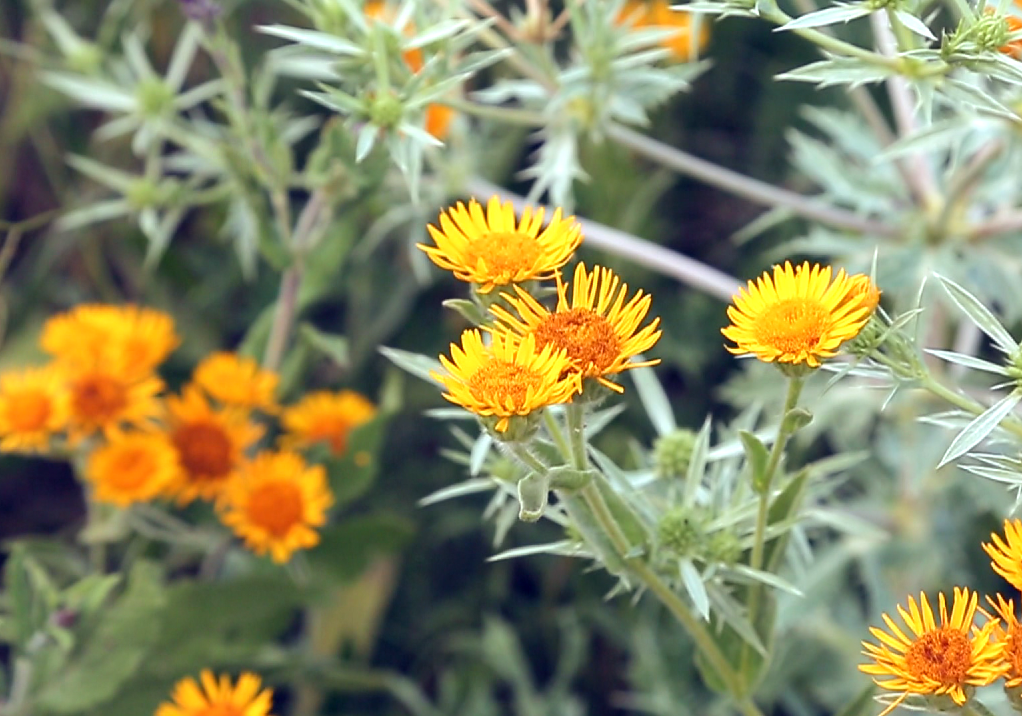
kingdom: Plantae
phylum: Tracheophyta
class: Magnoliopsida
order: Asterales
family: Asteraceae
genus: Pentanema
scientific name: Pentanema oculus-christi
